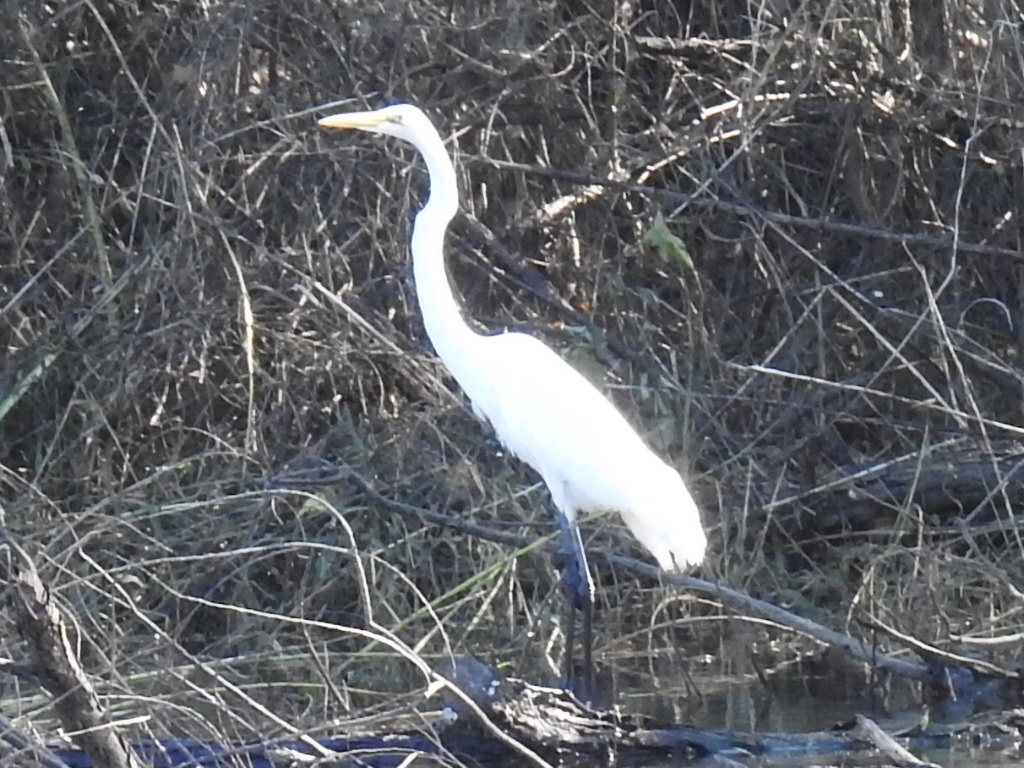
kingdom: Animalia
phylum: Chordata
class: Aves
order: Pelecaniformes
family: Ardeidae
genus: Ardea
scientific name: Ardea alba
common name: Great egret
